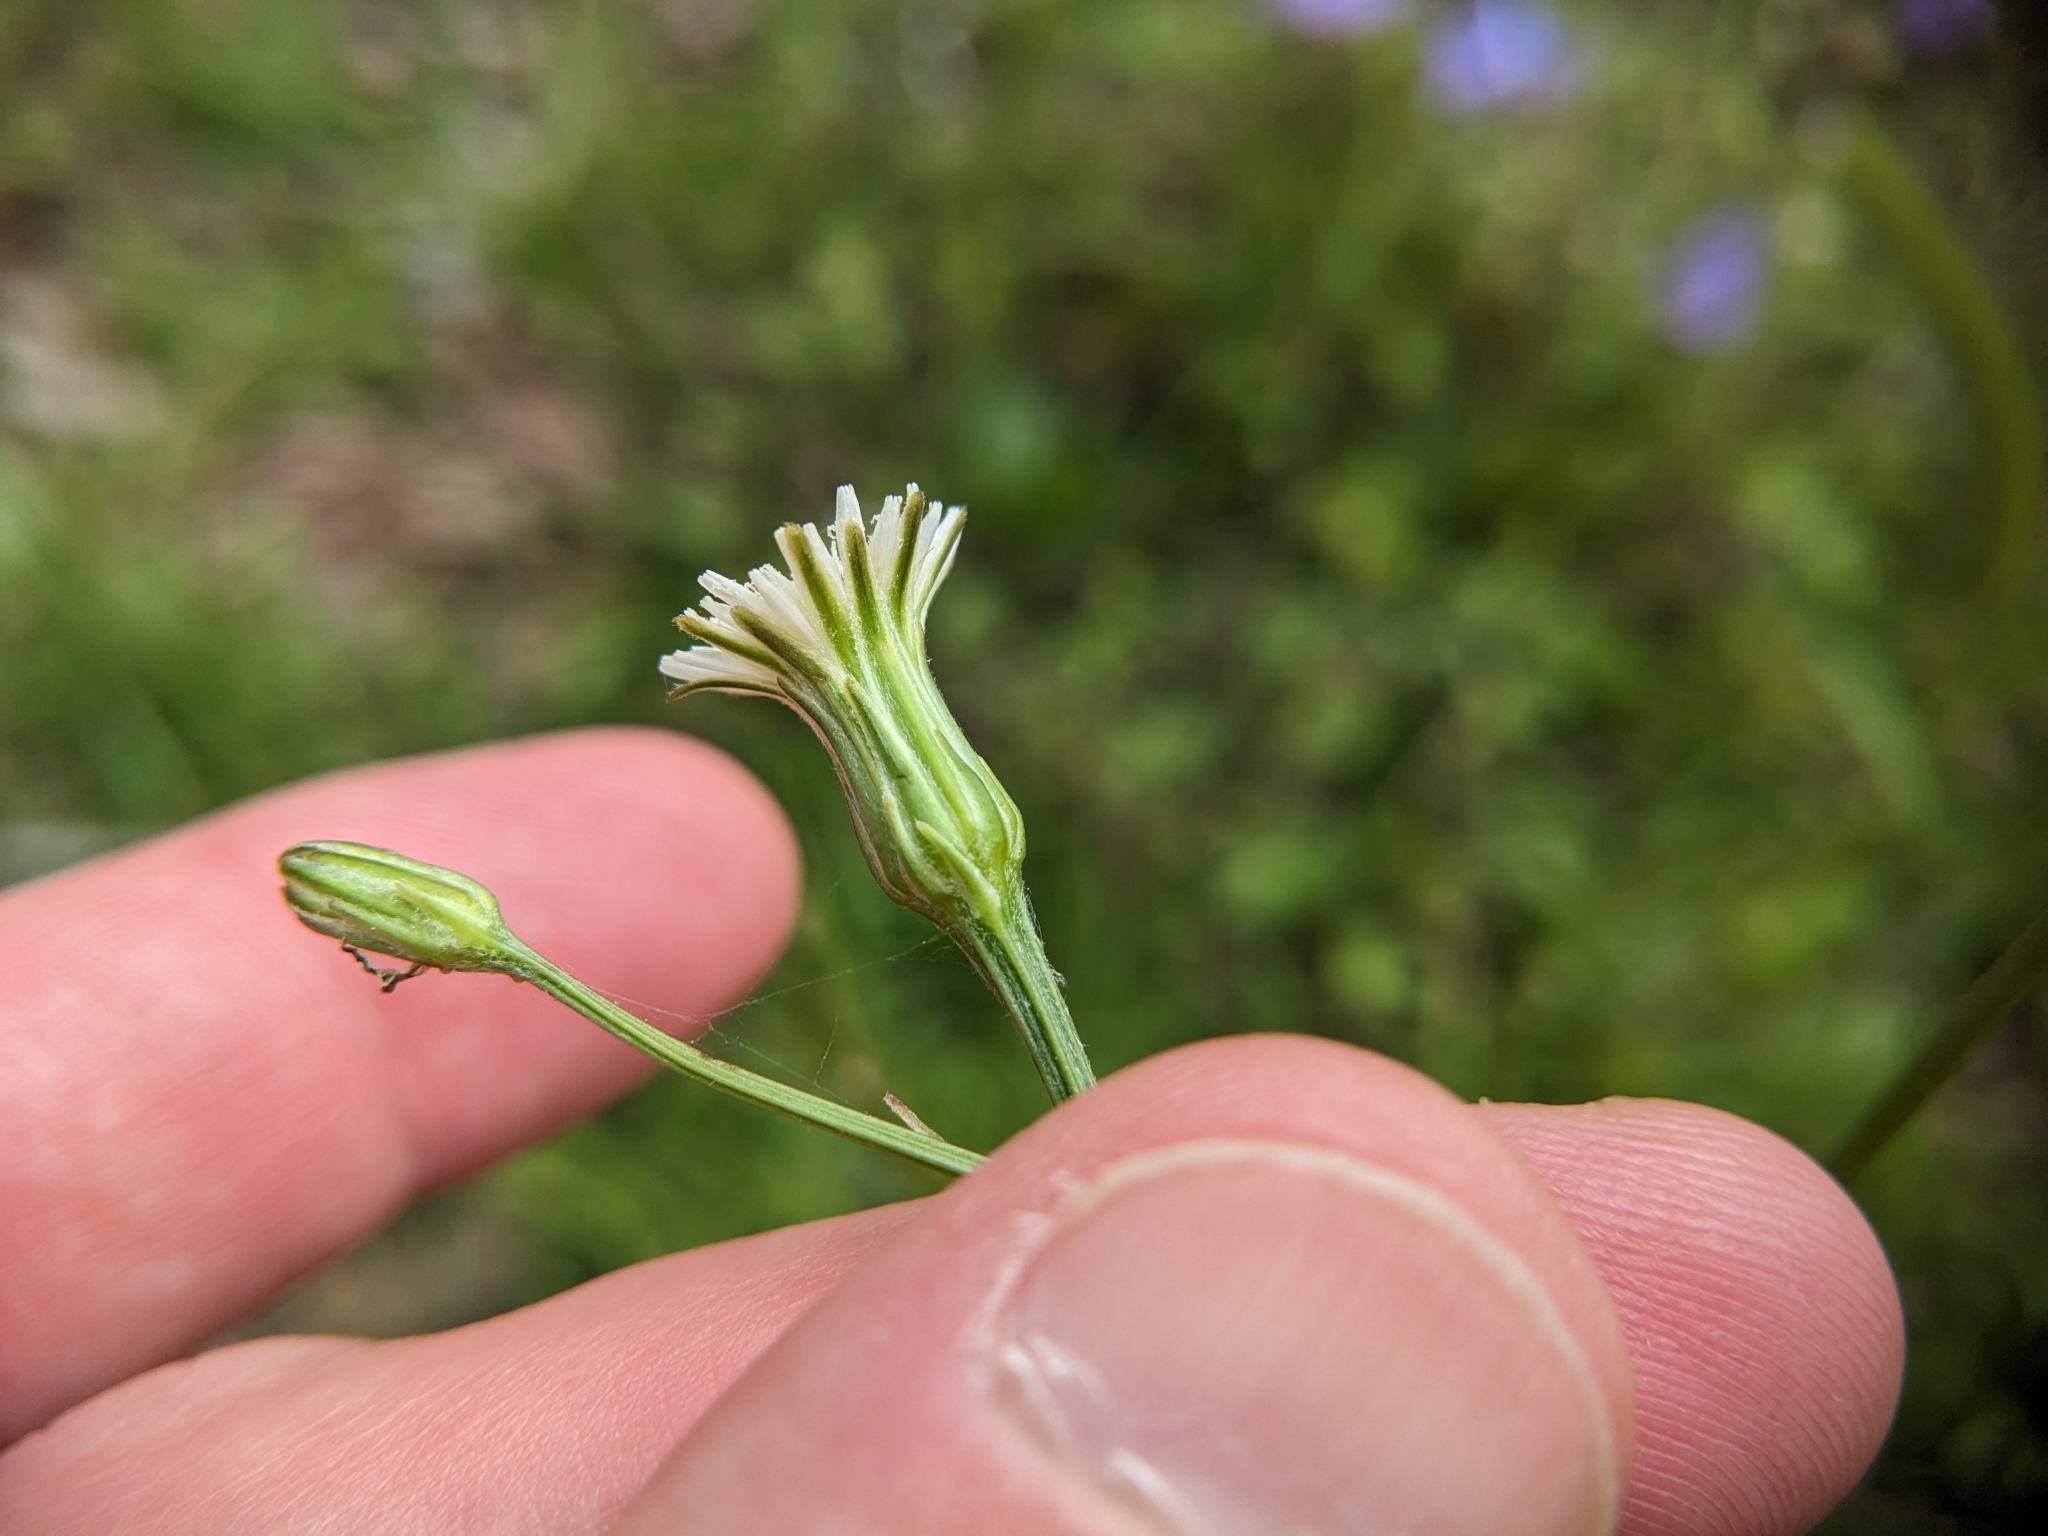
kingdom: Plantae
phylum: Tracheophyta
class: Magnoliopsida
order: Asterales
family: Asteraceae
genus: Hypochaeris
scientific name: Hypochaeris albiflora
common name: White flatweed
